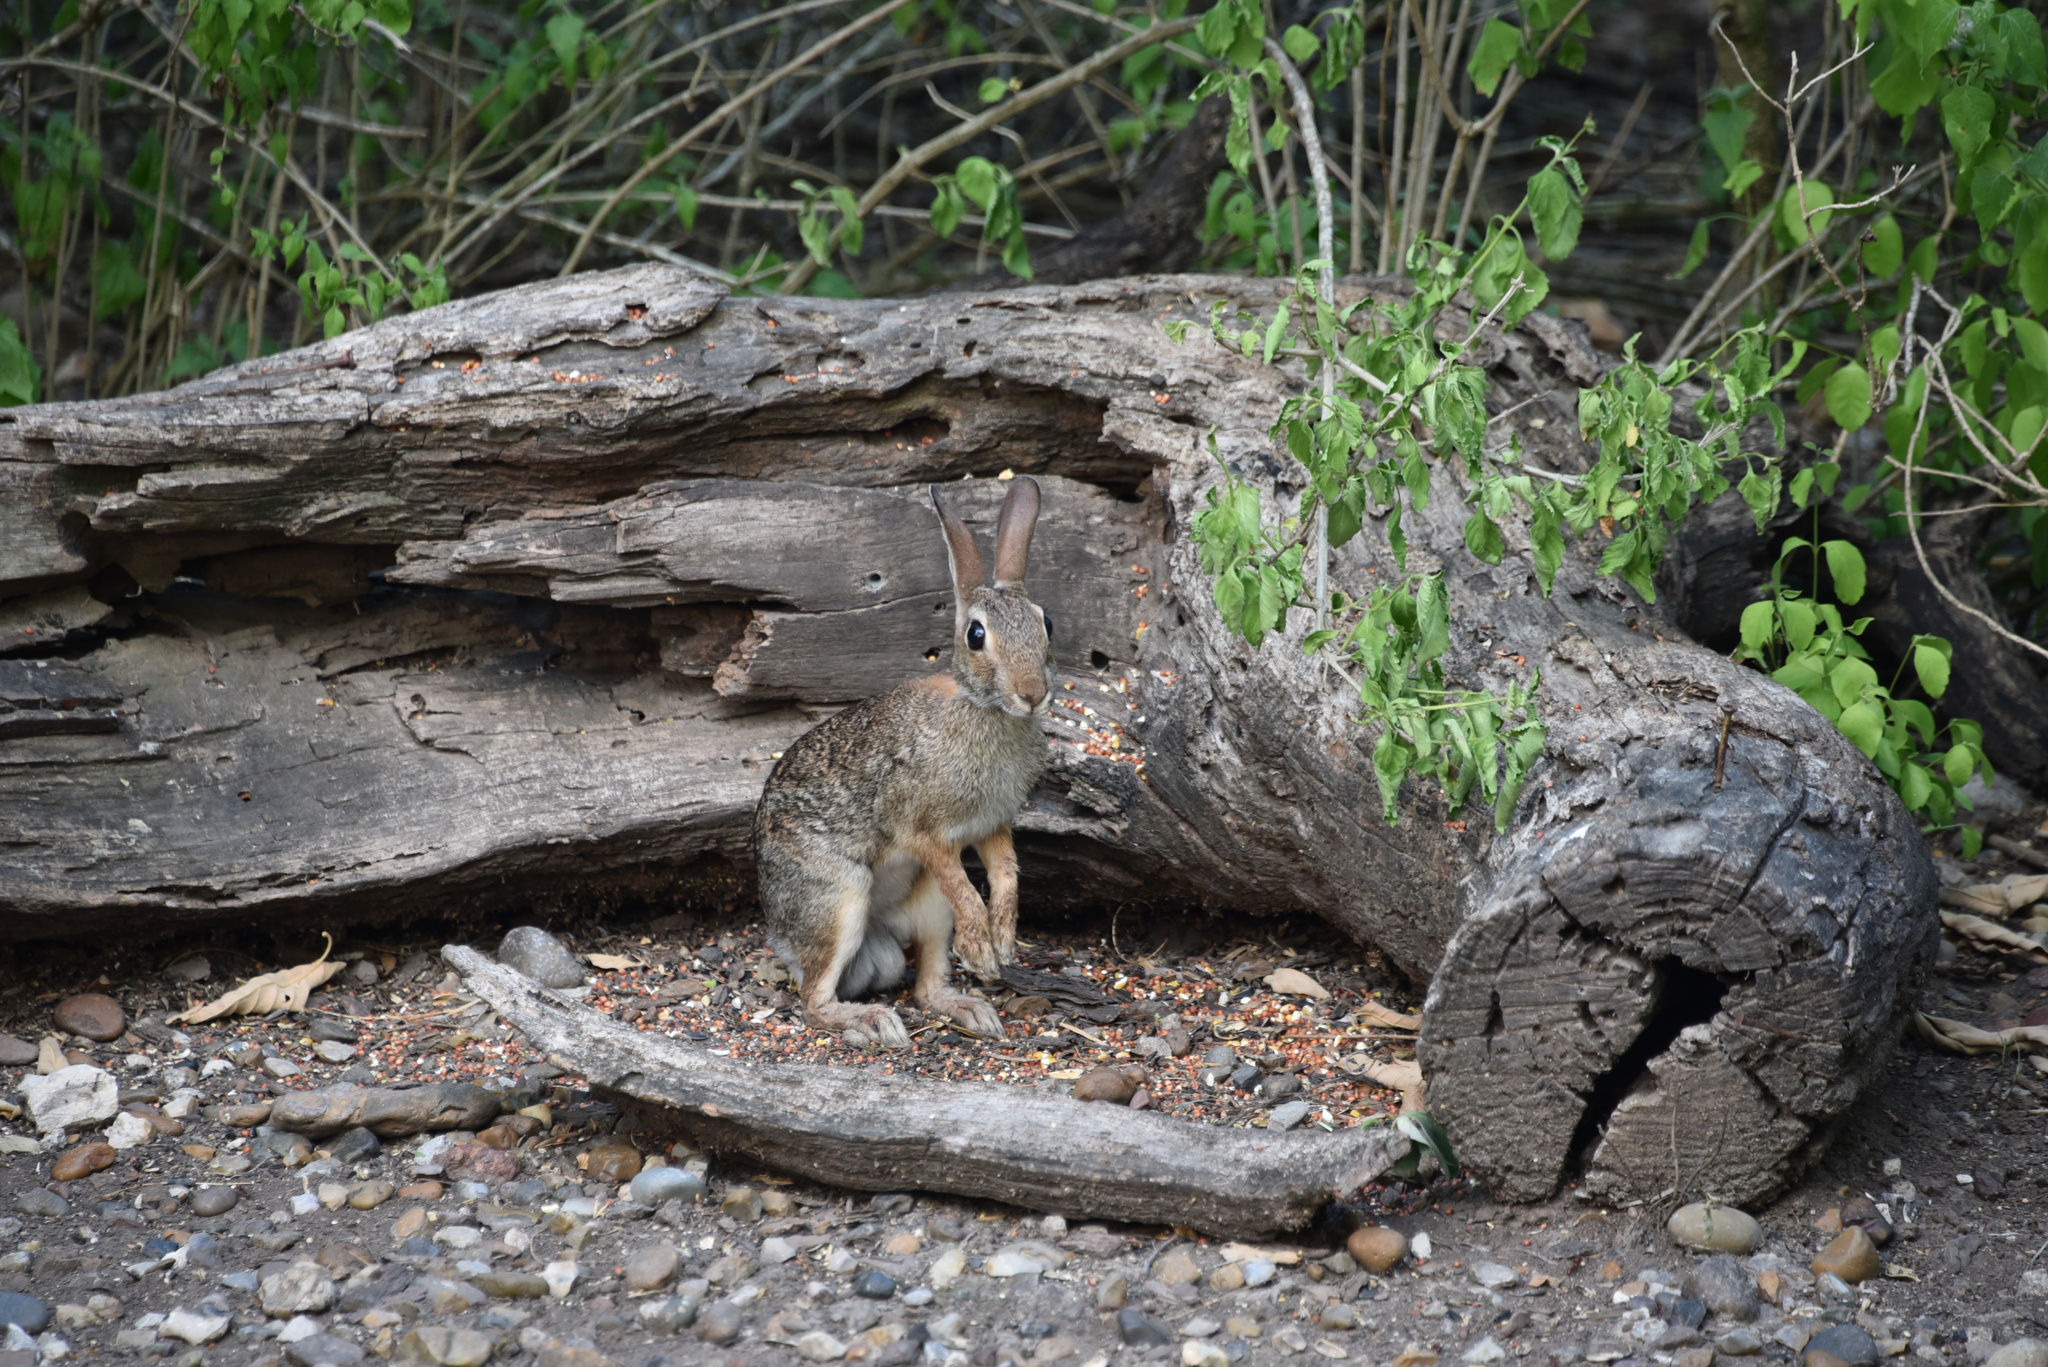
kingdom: Animalia
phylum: Chordata
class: Mammalia
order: Lagomorpha
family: Leporidae
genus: Sylvilagus
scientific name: Sylvilagus floridanus
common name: Eastern cottontail
